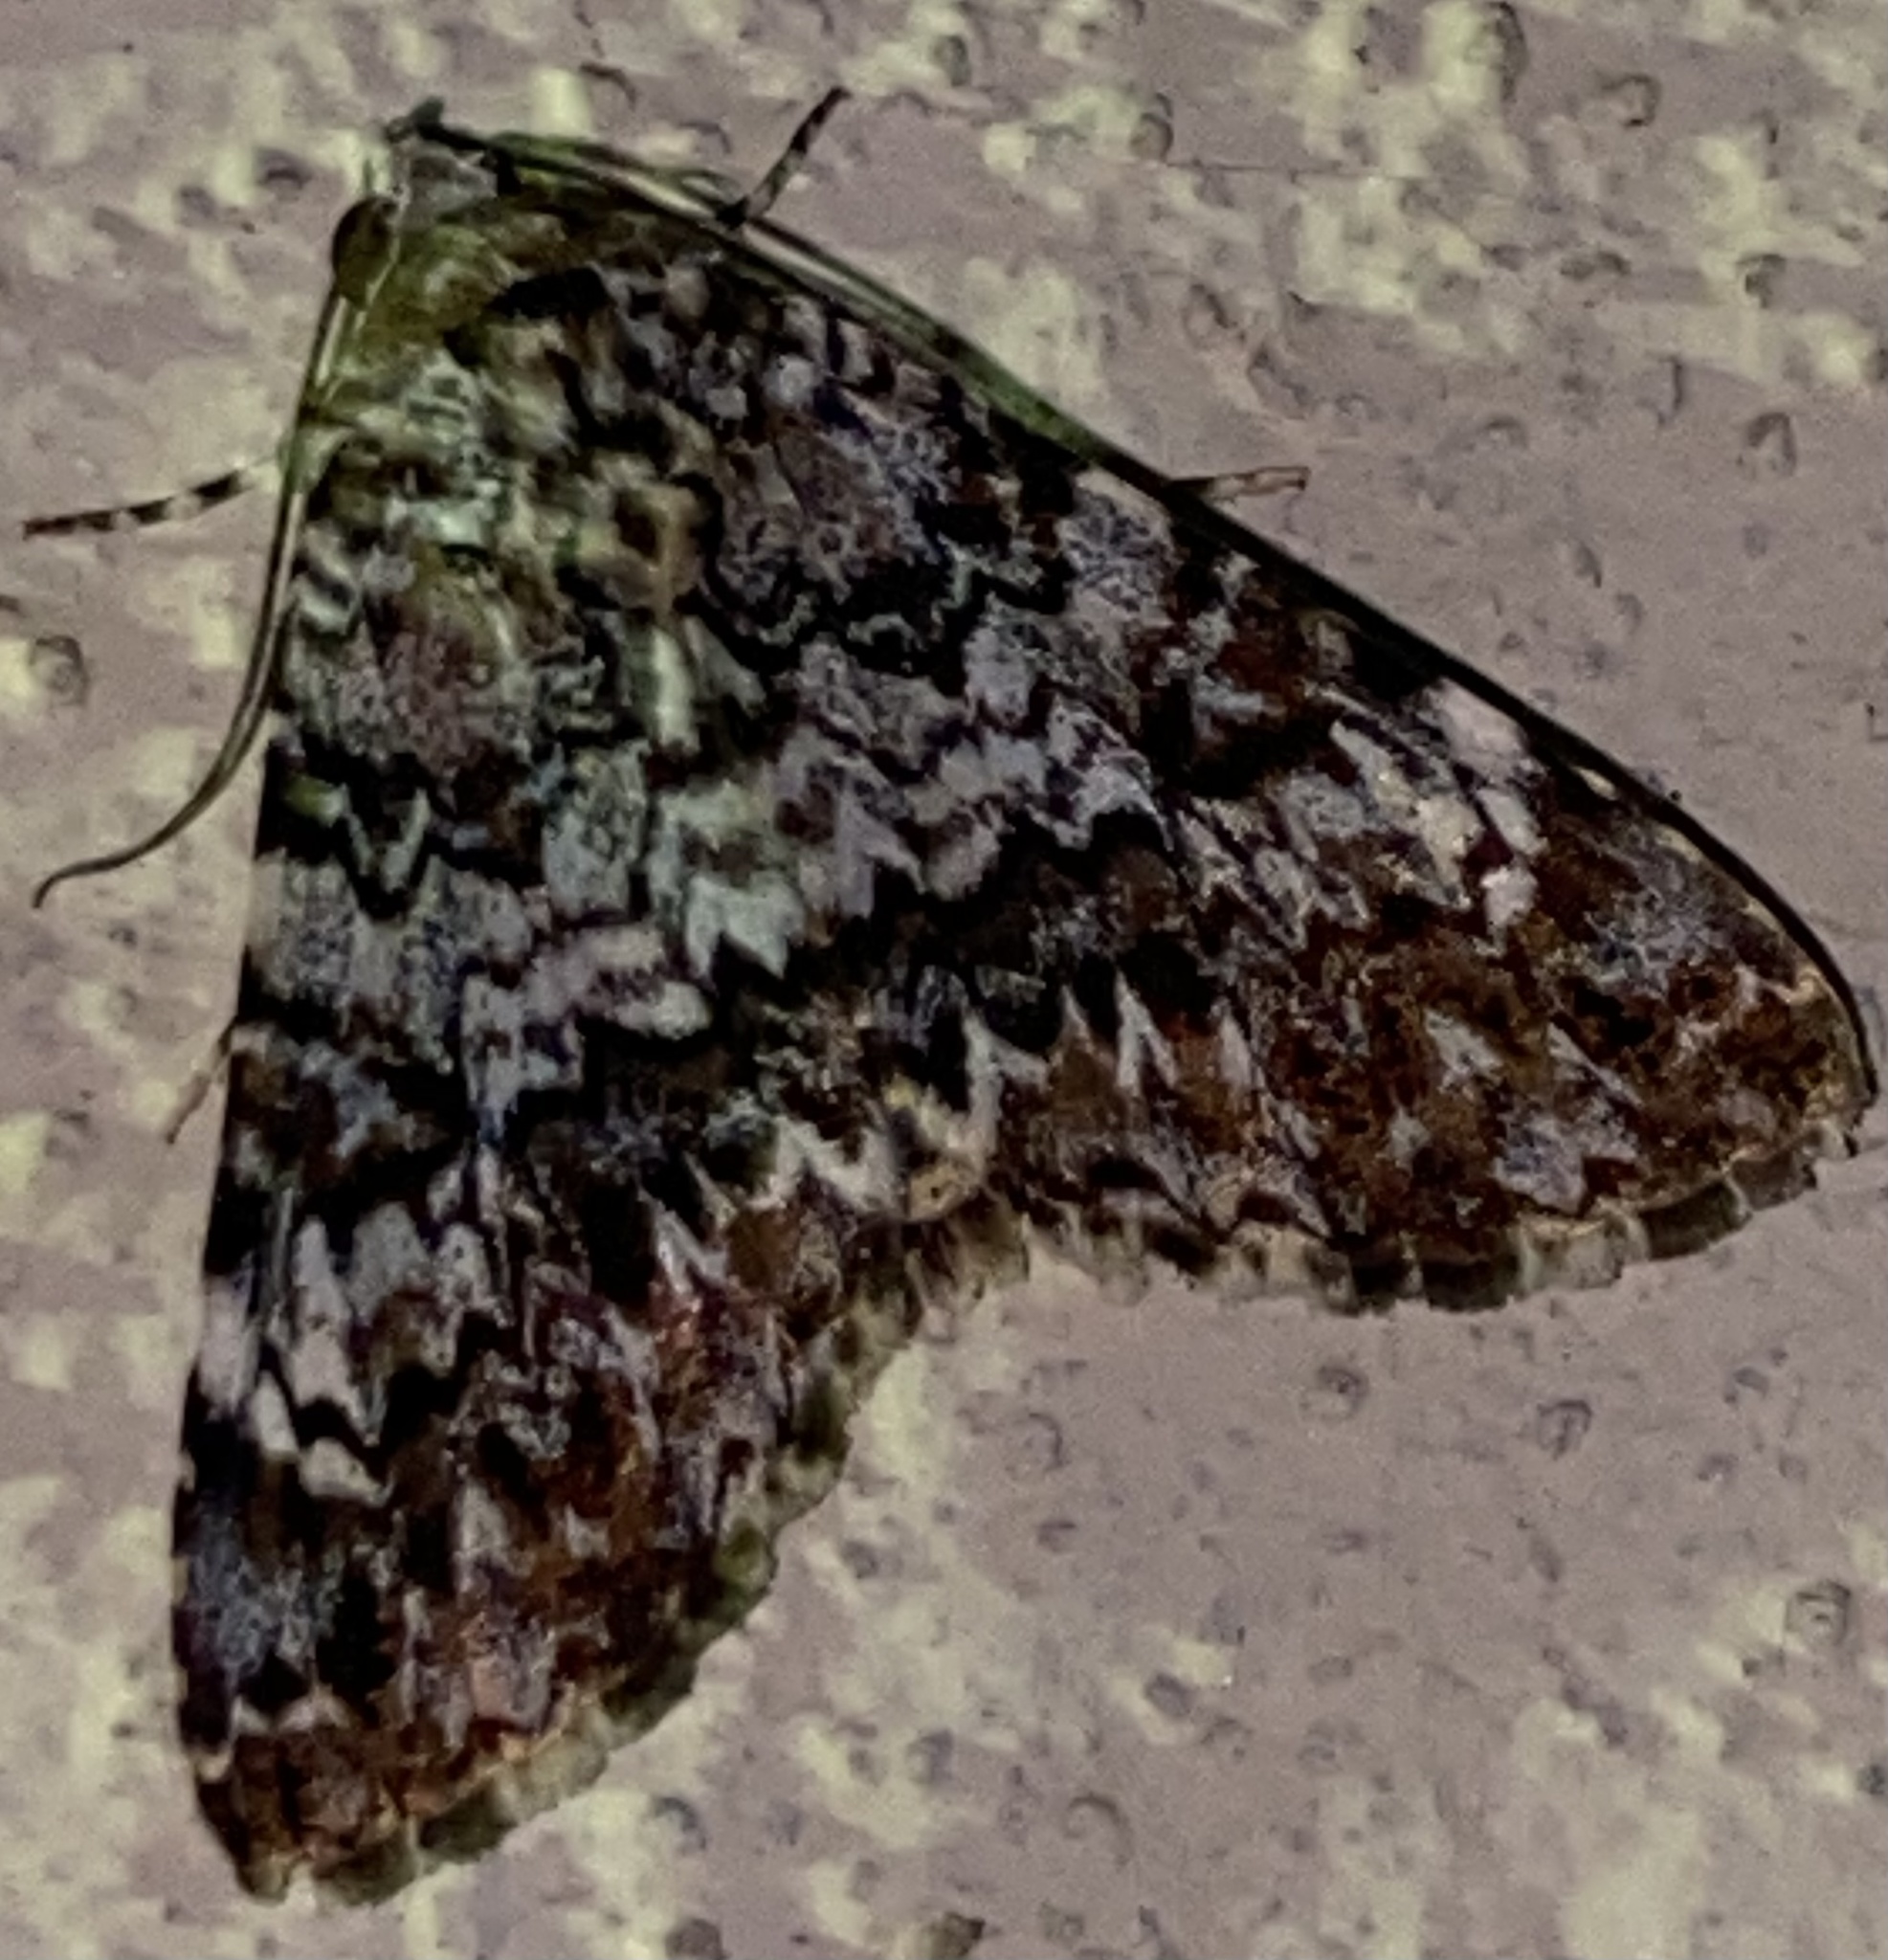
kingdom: Animalia
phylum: Arthropoda
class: Insecta
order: Lepidoptera
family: Erebidae
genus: Acolasis
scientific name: Acolasis Coenipeta medina
